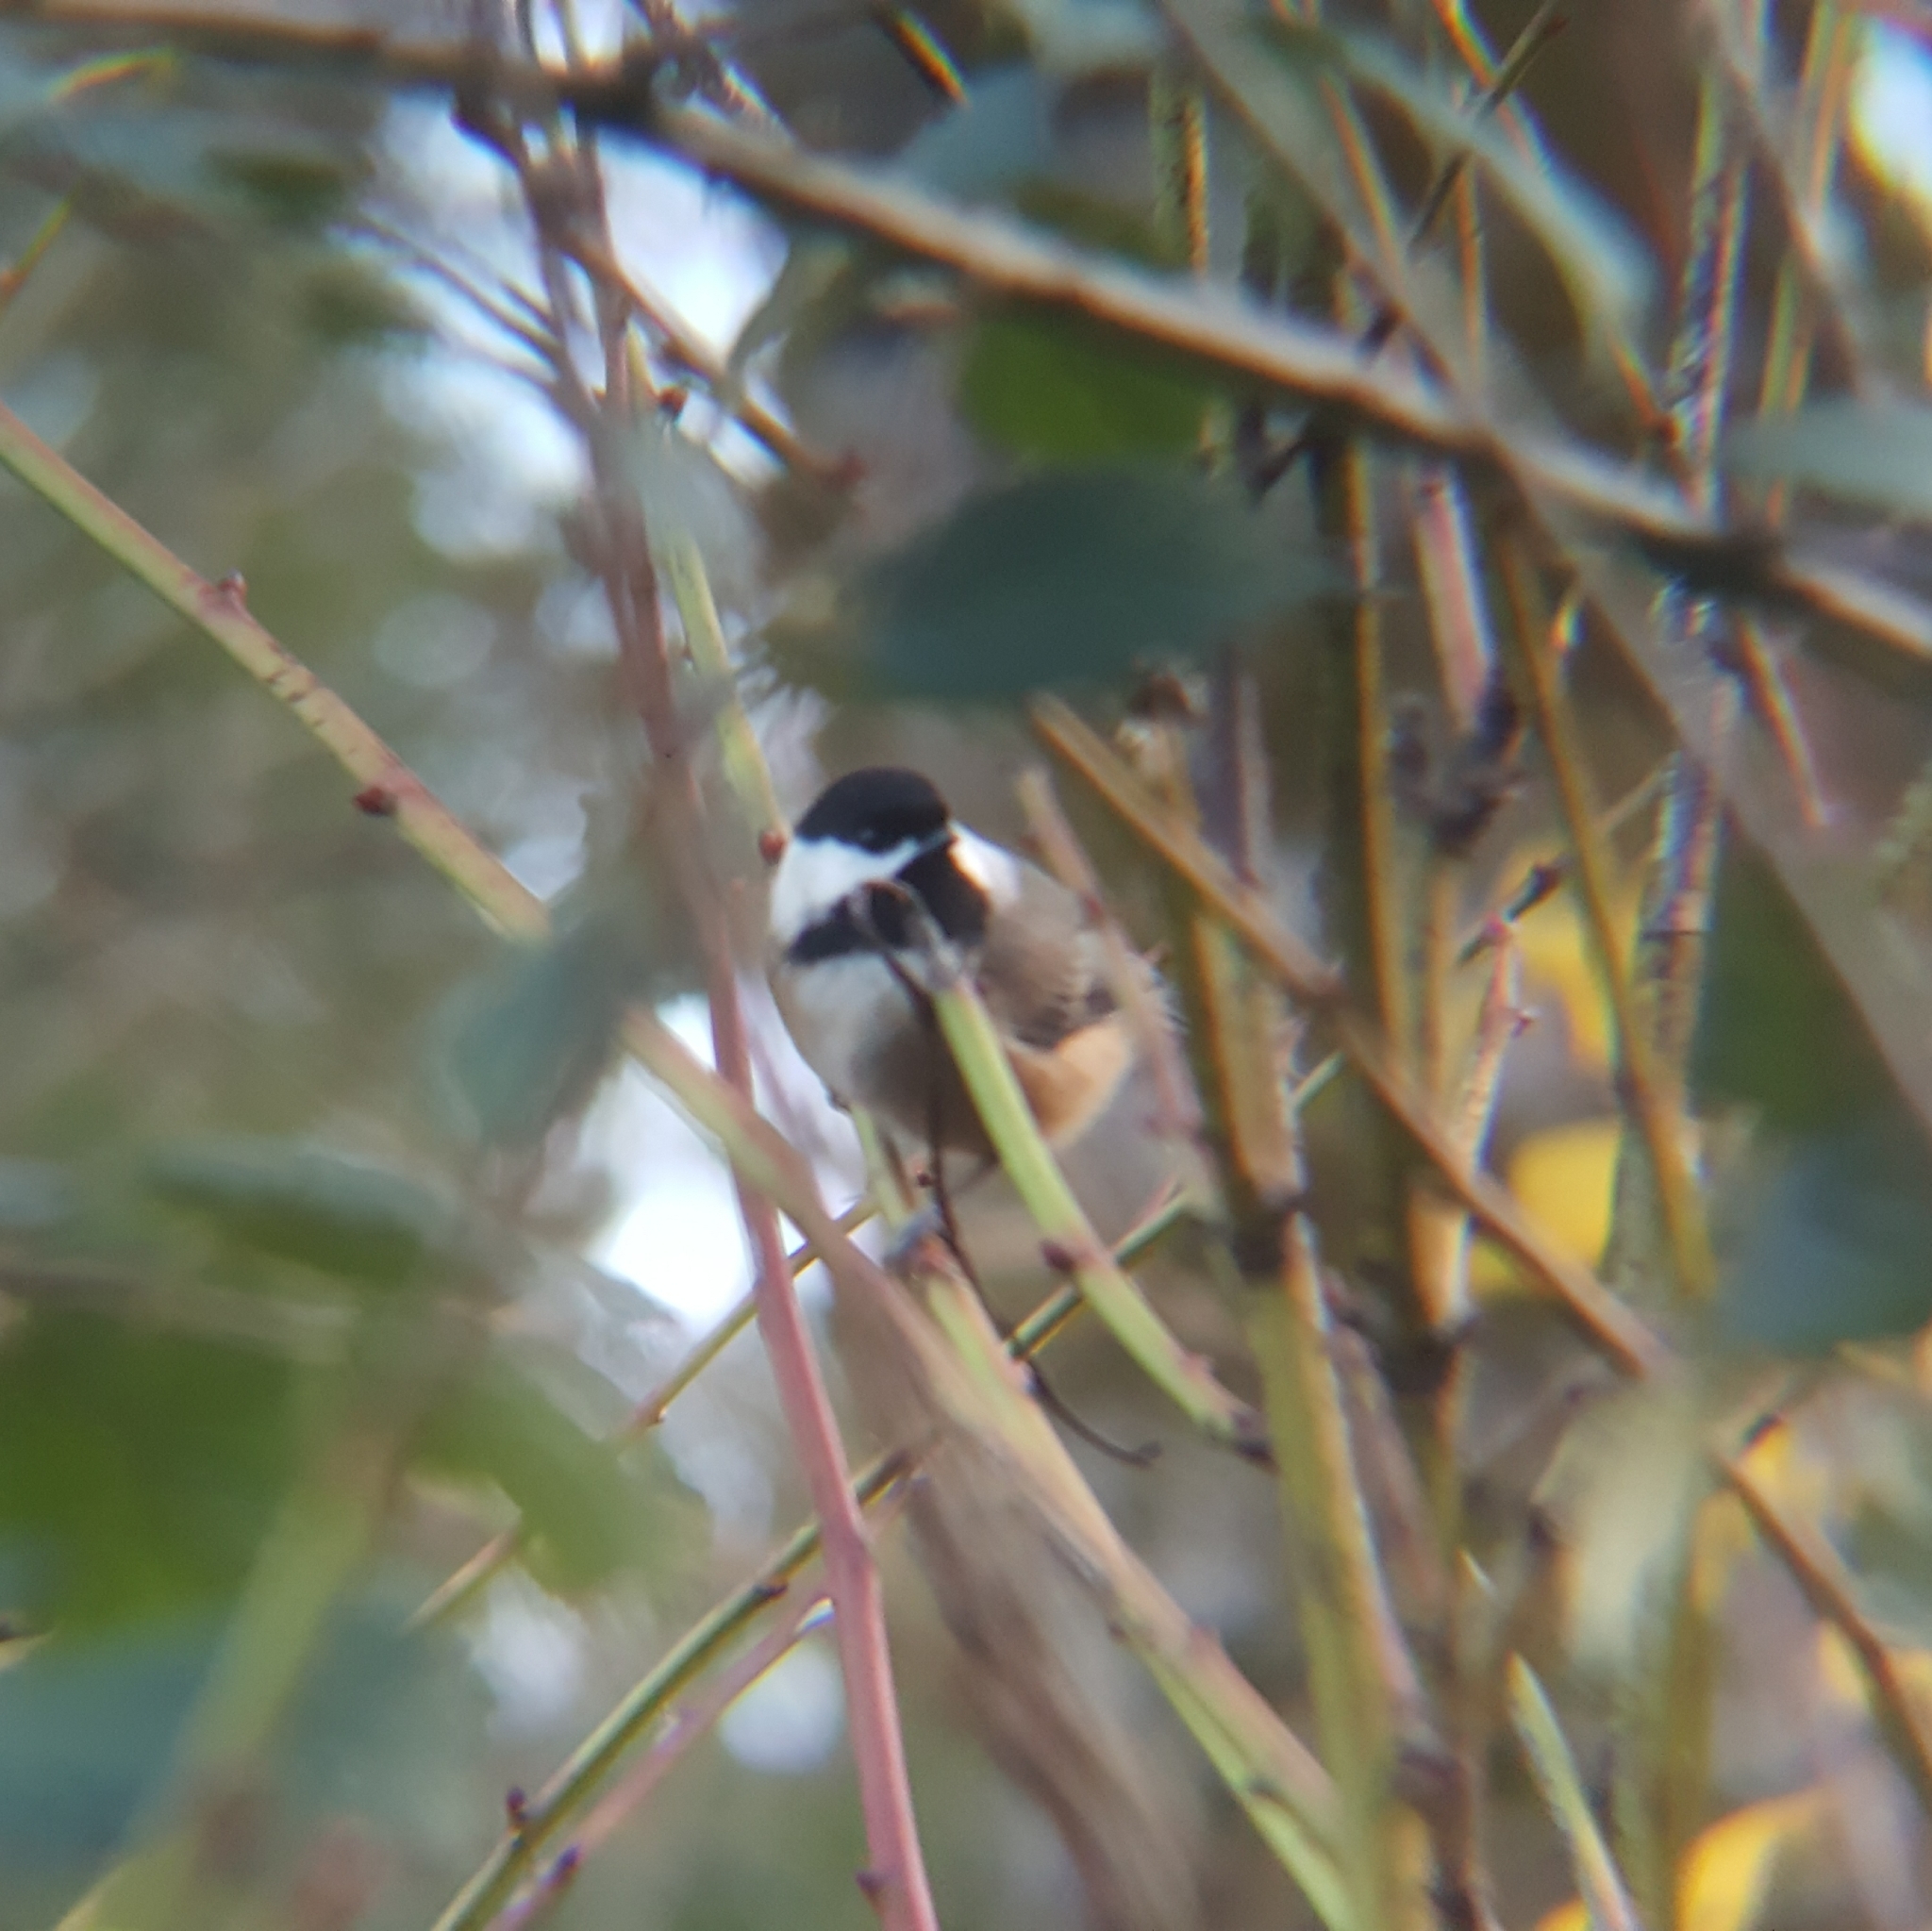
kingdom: Animalia
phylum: Chordata
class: Aves
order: Passeriformes
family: Paridae
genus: Poecile
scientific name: Poecile atricapillus
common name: Black-capped chickadee
